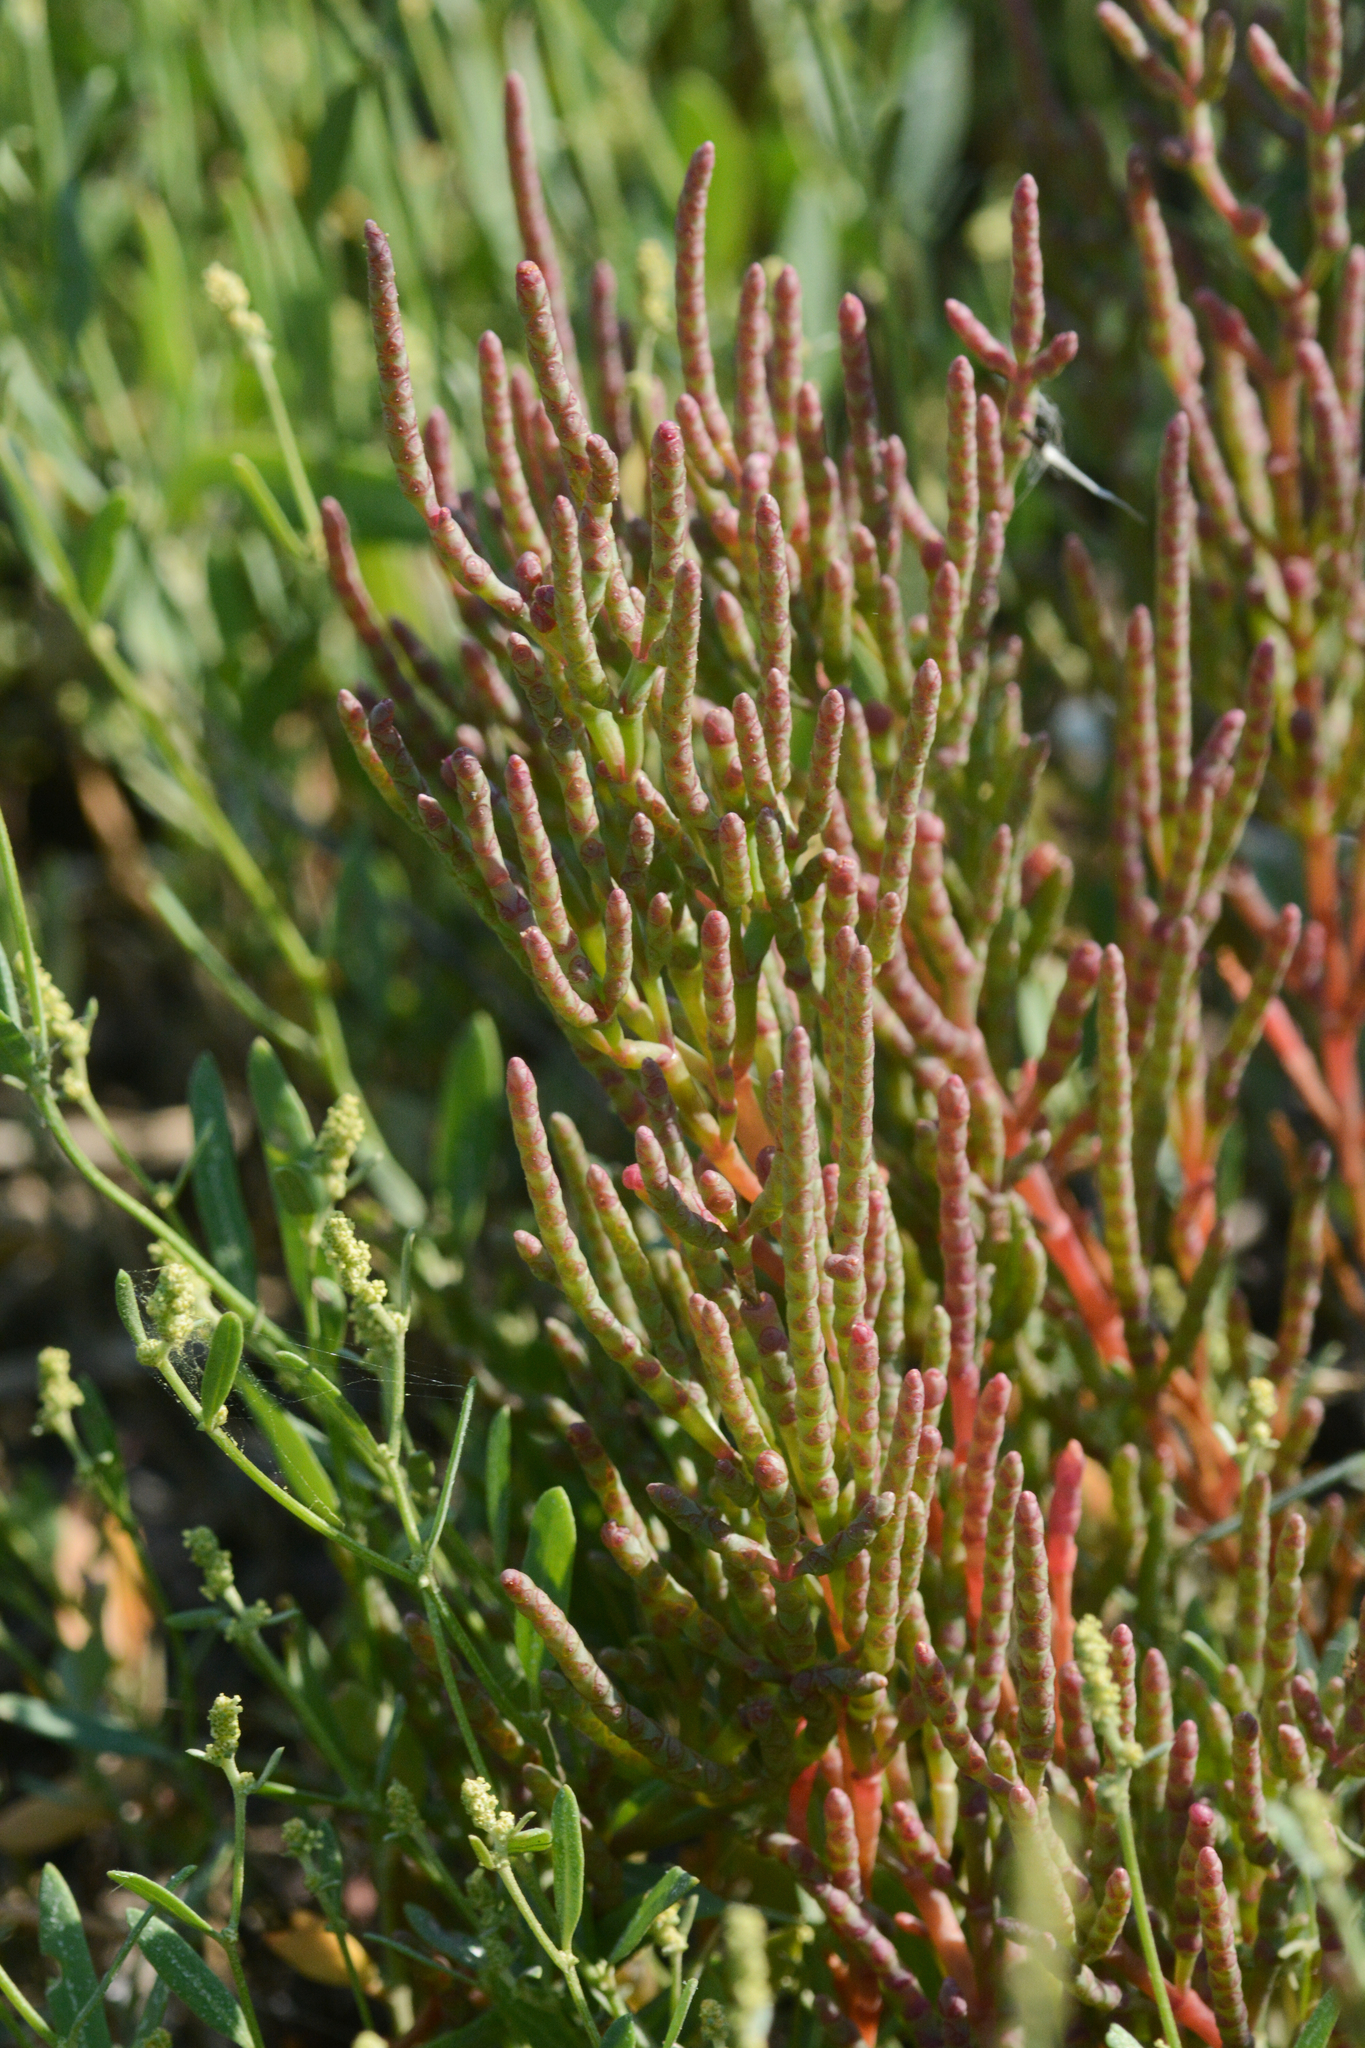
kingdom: Plantae
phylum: Tracheophyta
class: Magnoliopsida
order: Caryophyllales
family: Amaranthaceae
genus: Salicornia
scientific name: Salicornia rubra
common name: Red glasswort
